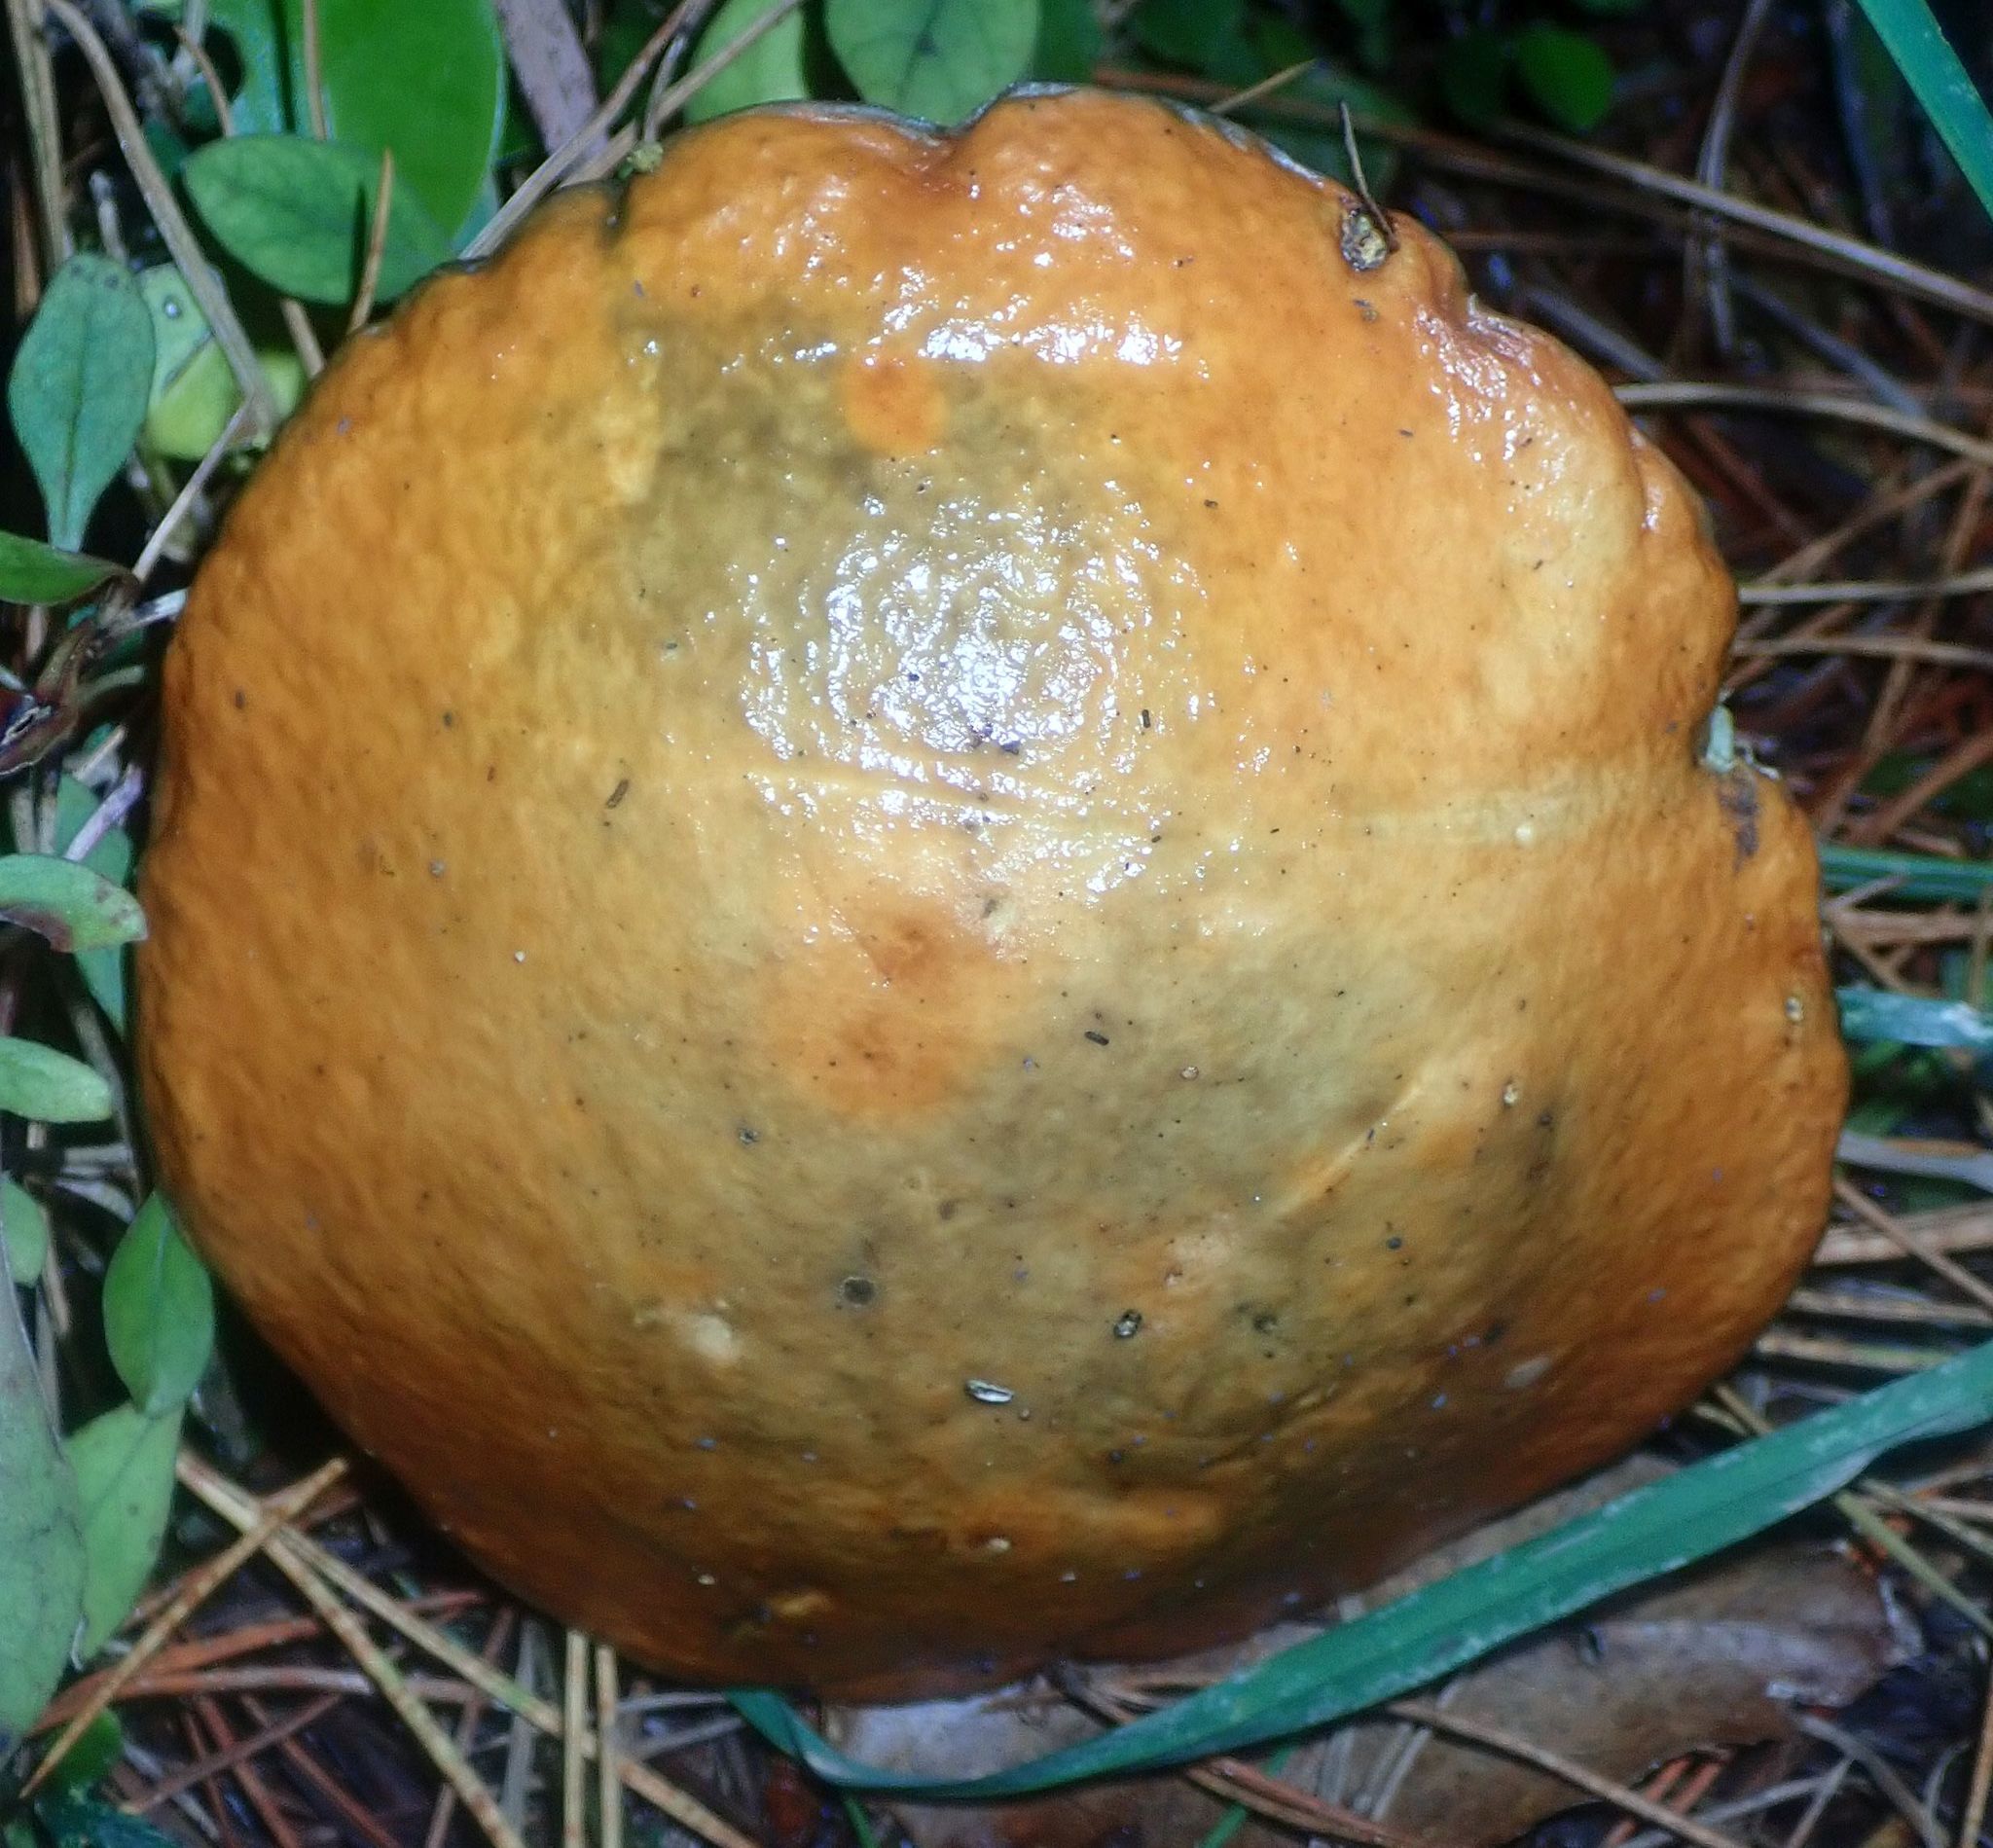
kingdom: Fungi
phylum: Basidiomycota
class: Agaricomycetes
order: Boletales
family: Suillaceae
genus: Suillus
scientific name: Suillus granulatus
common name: Weeping bolete
